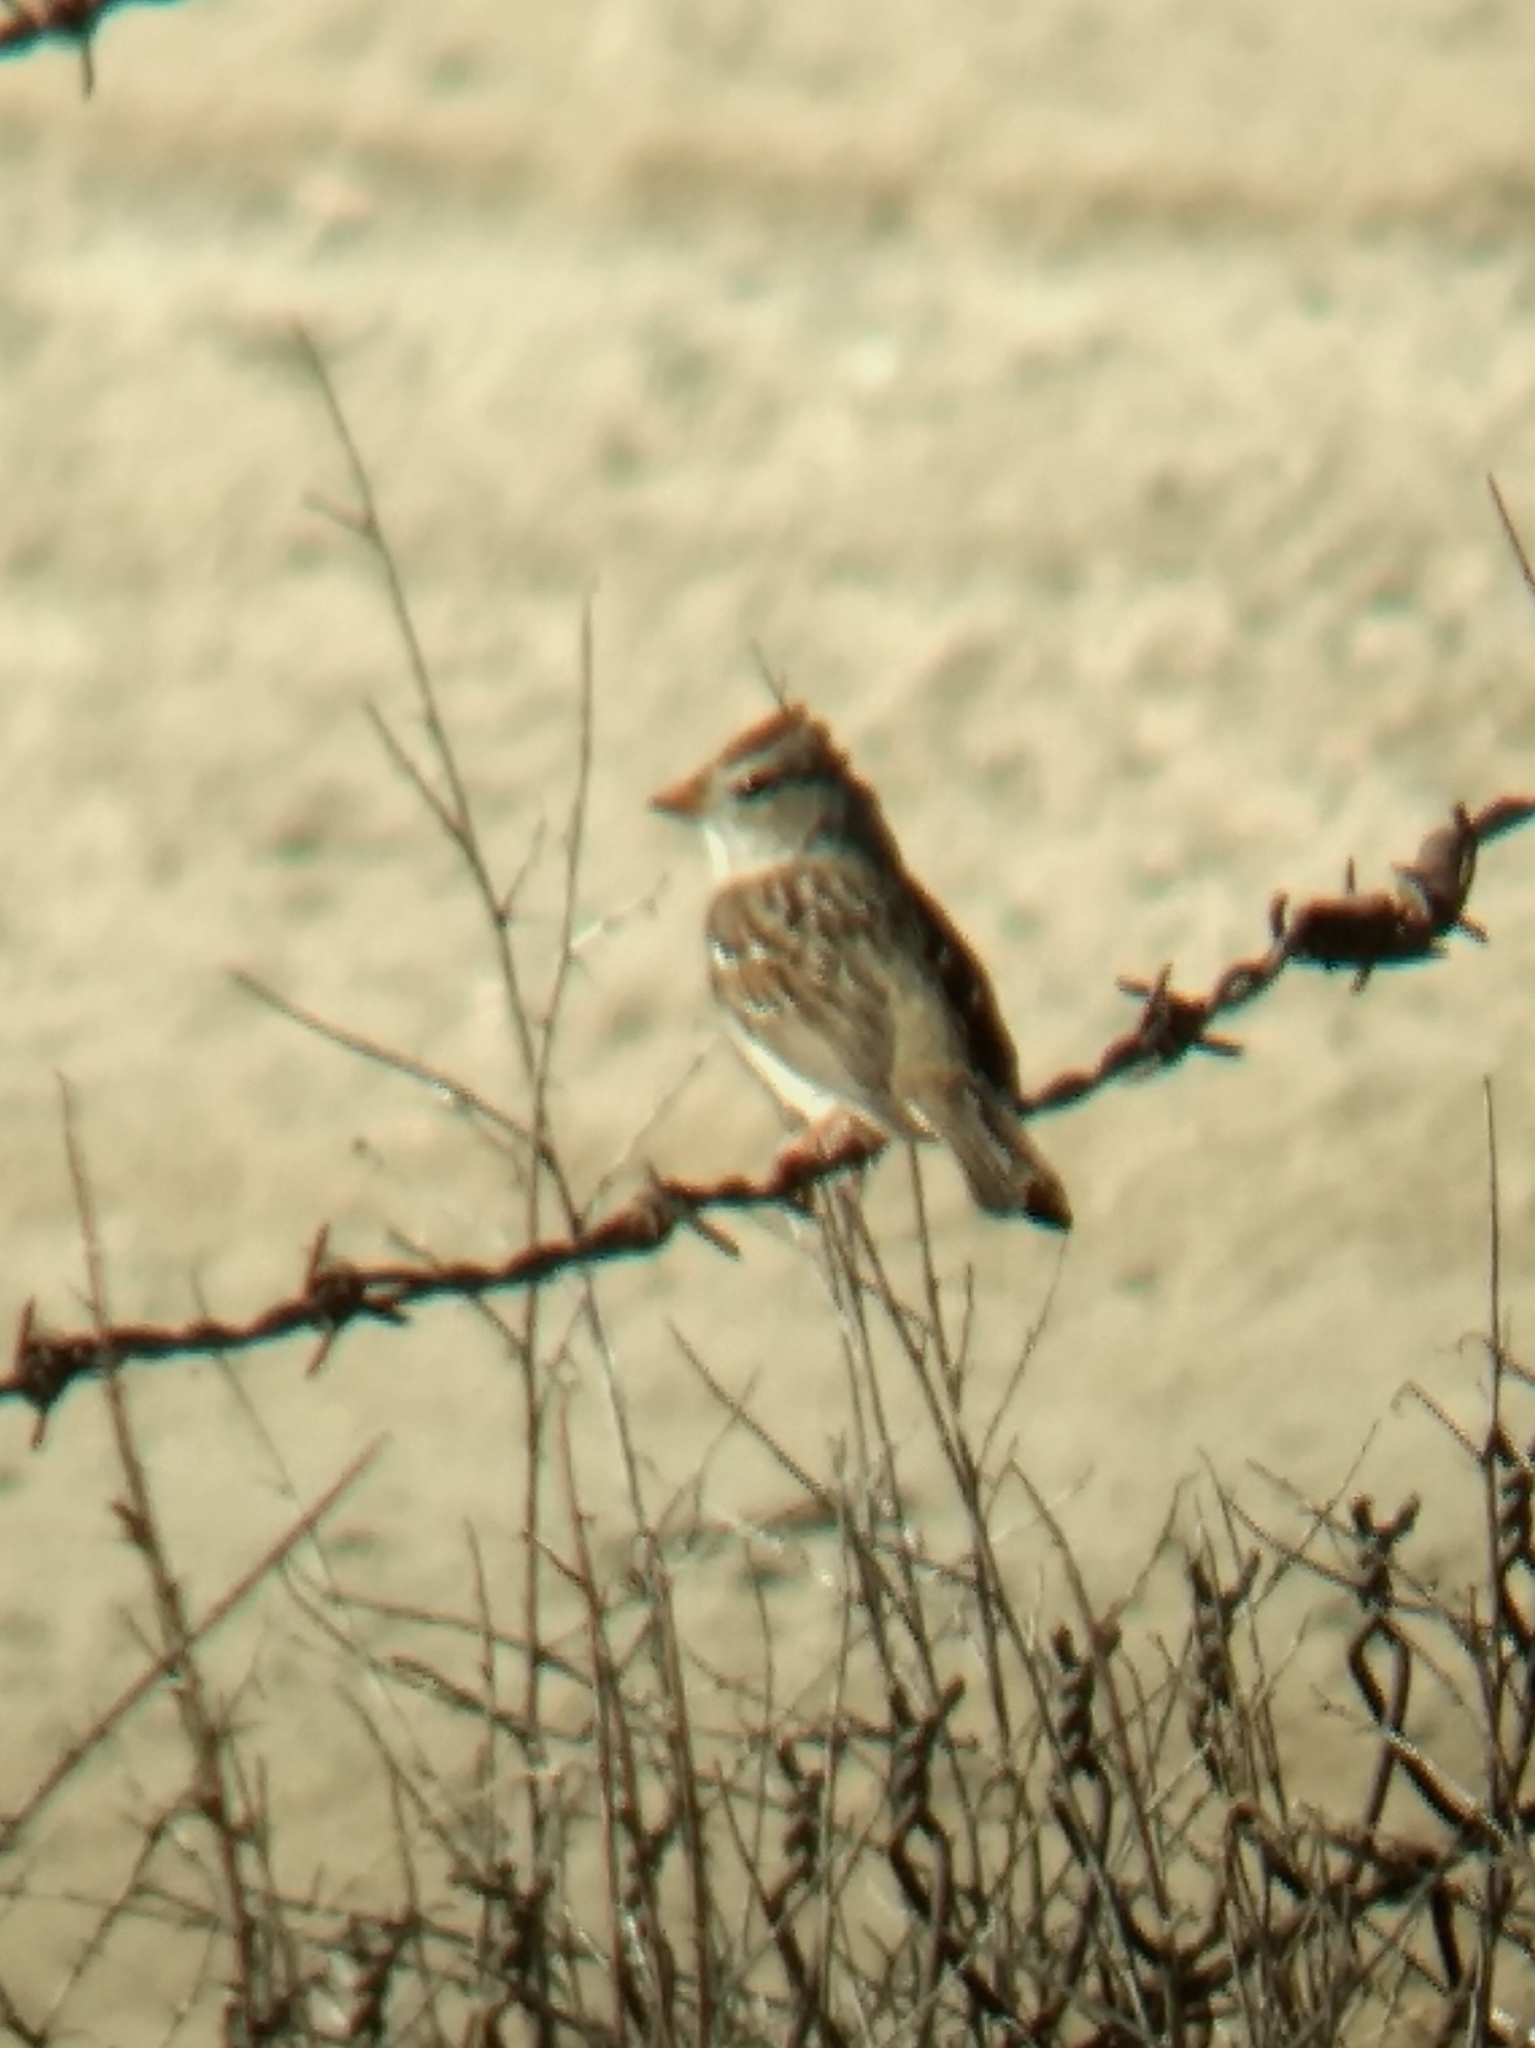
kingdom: Animalia
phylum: Chordata
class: Aves
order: Passeriformes
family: Passerellidae
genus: Zonotrichia
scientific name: Zonotrichia leucophrys
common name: White-crowned sparrow
